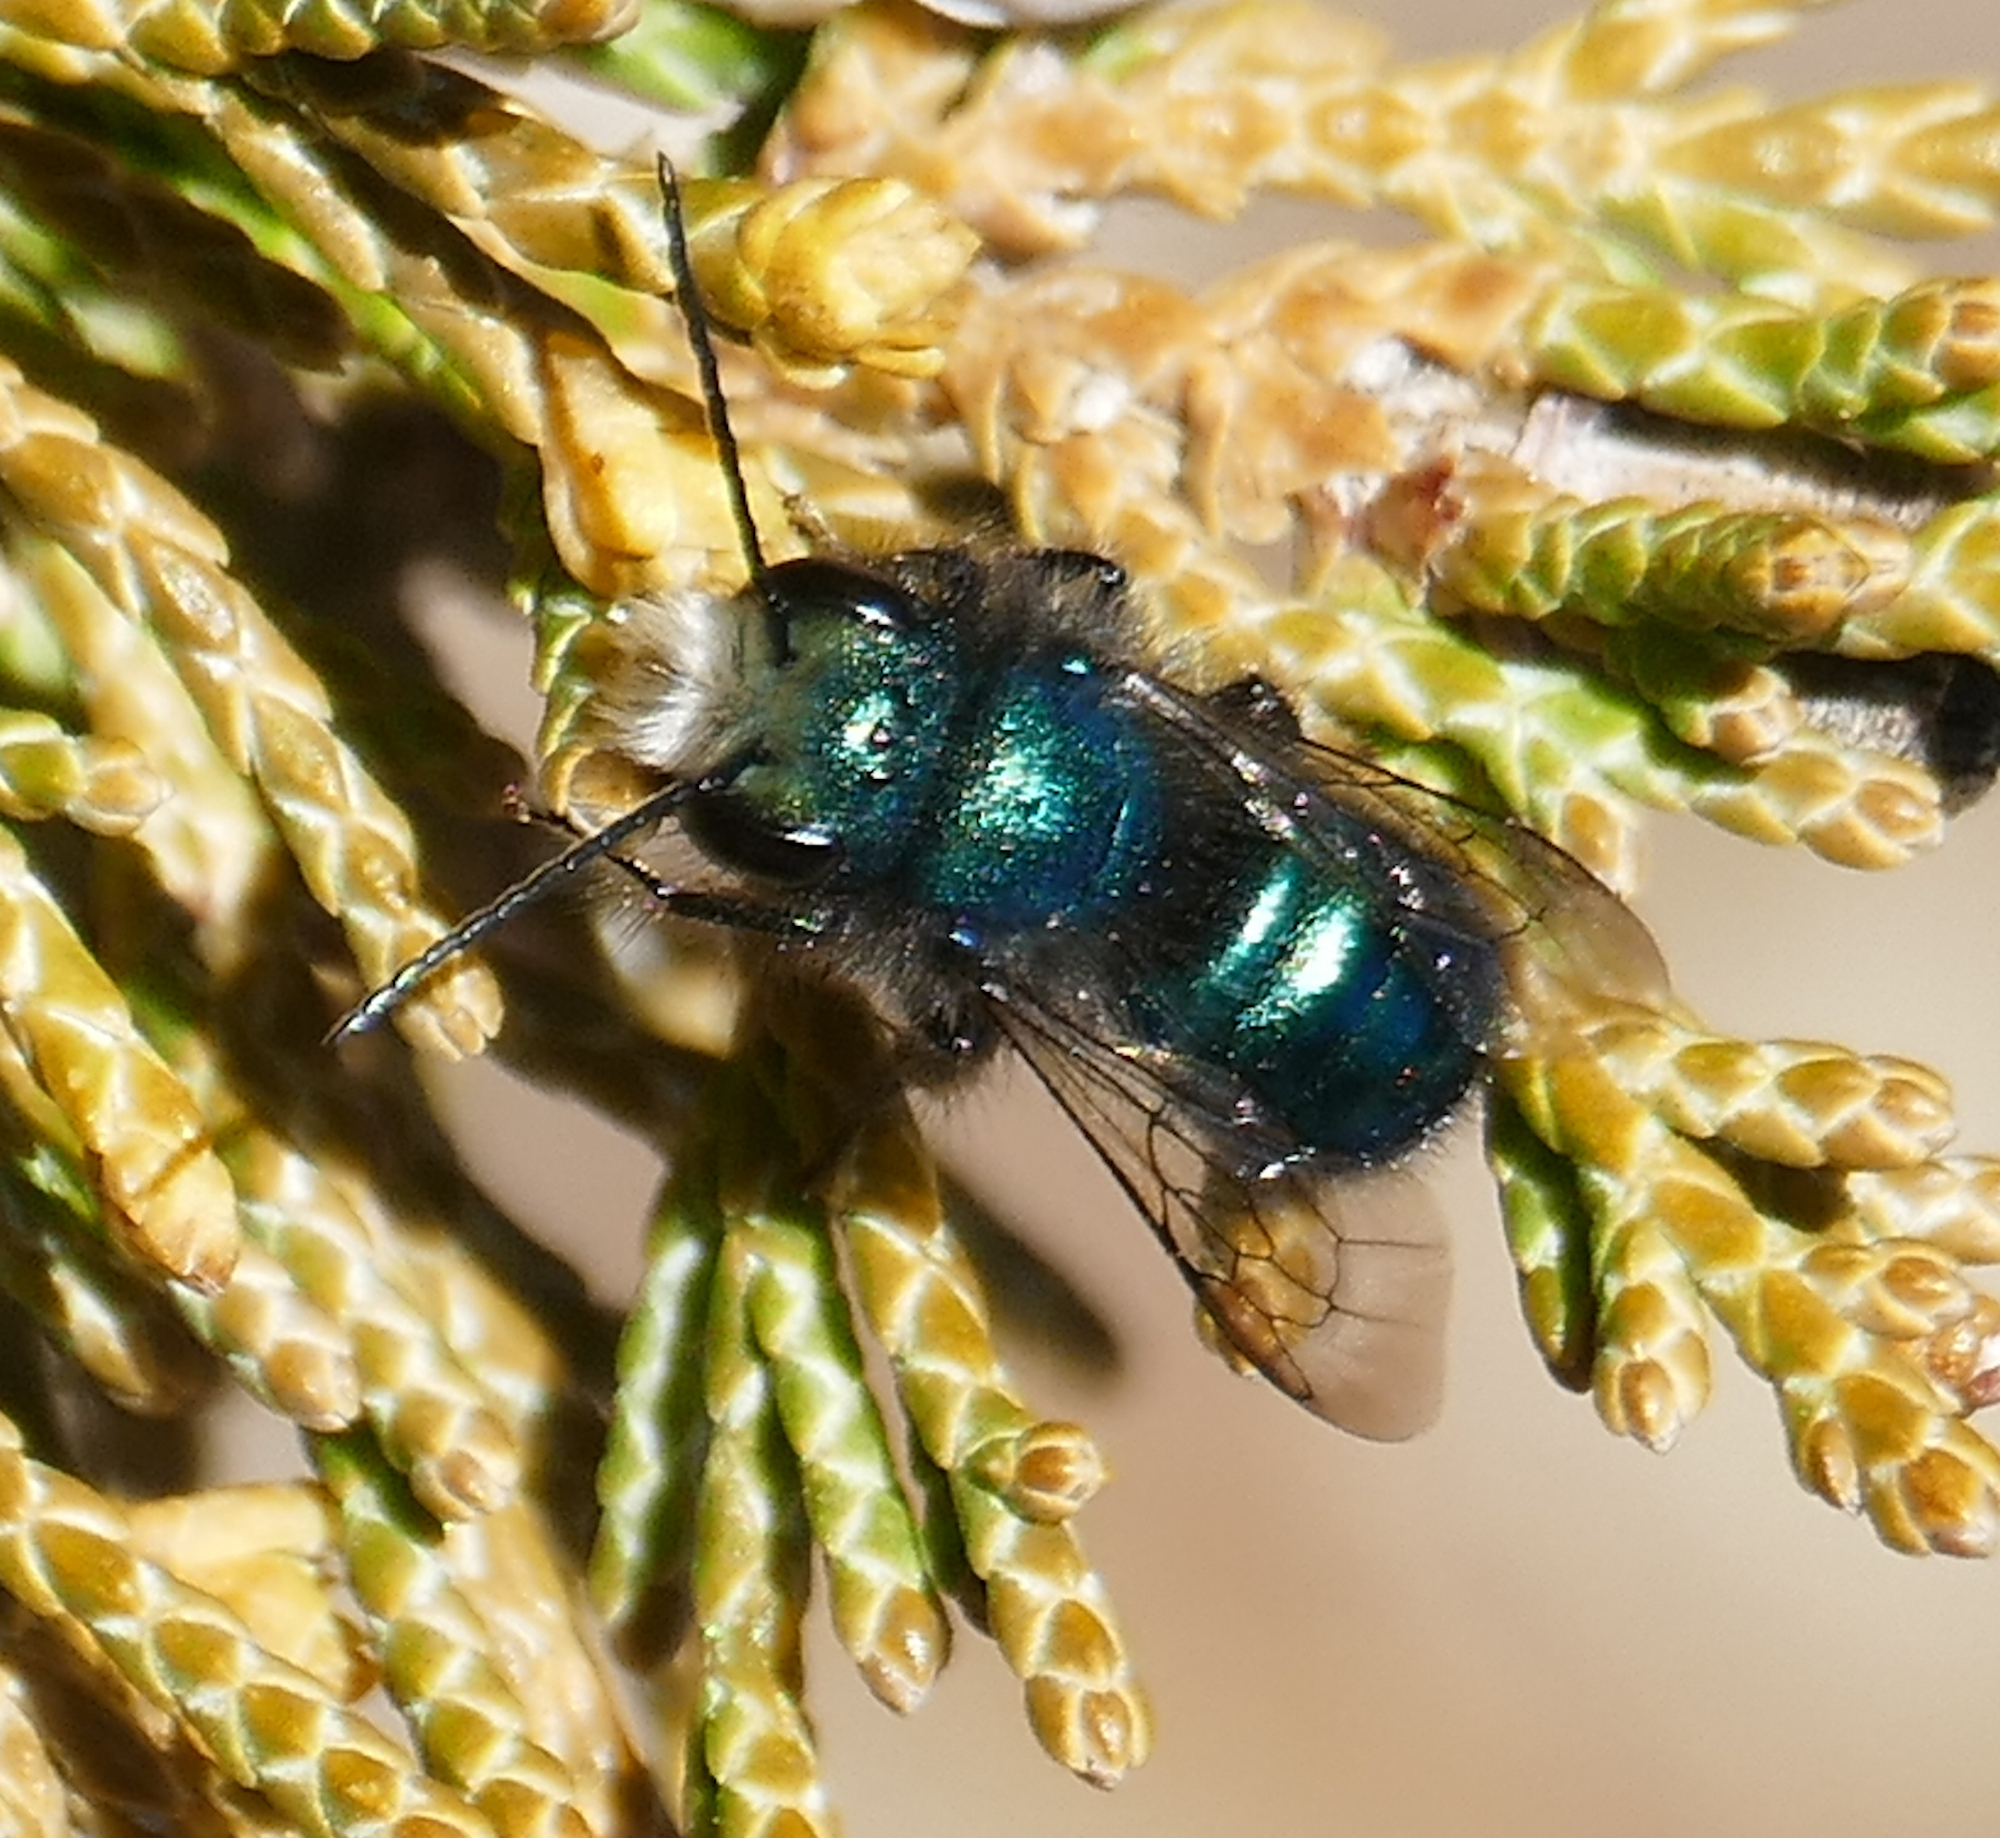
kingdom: Animalia
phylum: Arthropoda
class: Insecta
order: Hymenoptera
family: Megachilidae
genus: Osmia
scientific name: Osmia ribifloris
